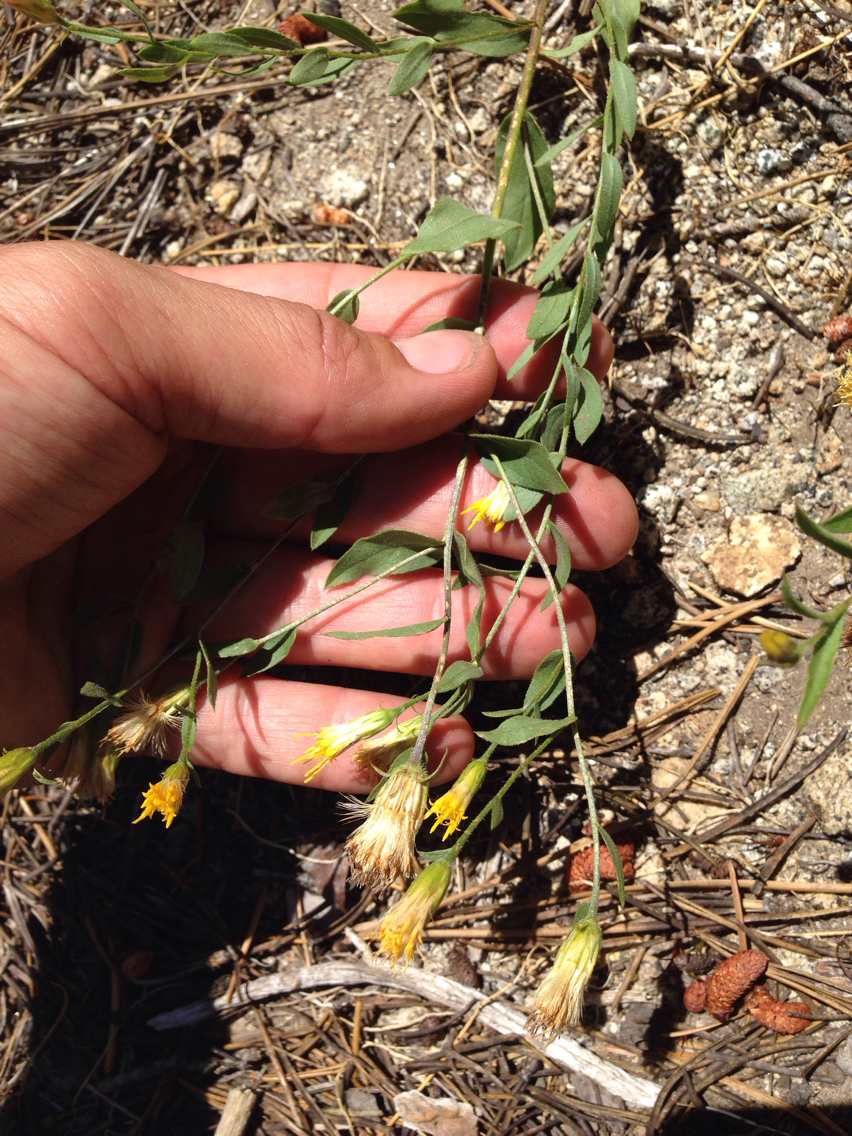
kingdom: Plantae
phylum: Tracheophyta
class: Magnoliopsida
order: Asterales
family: Asteraceae
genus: Eucephalus
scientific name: Eucephalus breweri
